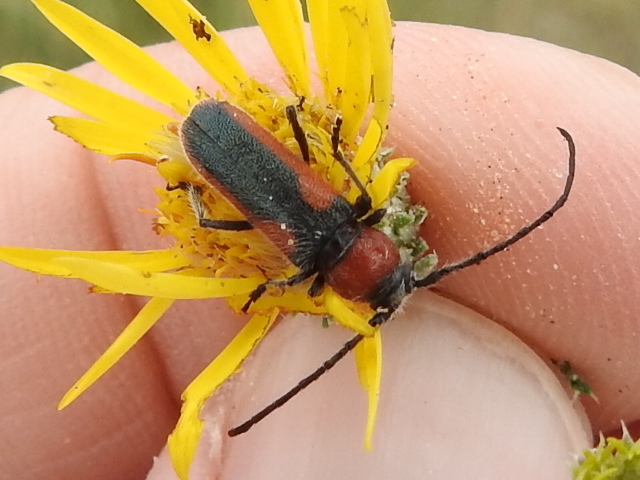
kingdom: Animalia
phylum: Arthropoda
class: Insecta
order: Coleoptera
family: Cerambycidae
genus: Crossidius
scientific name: Crossidius discoideus
